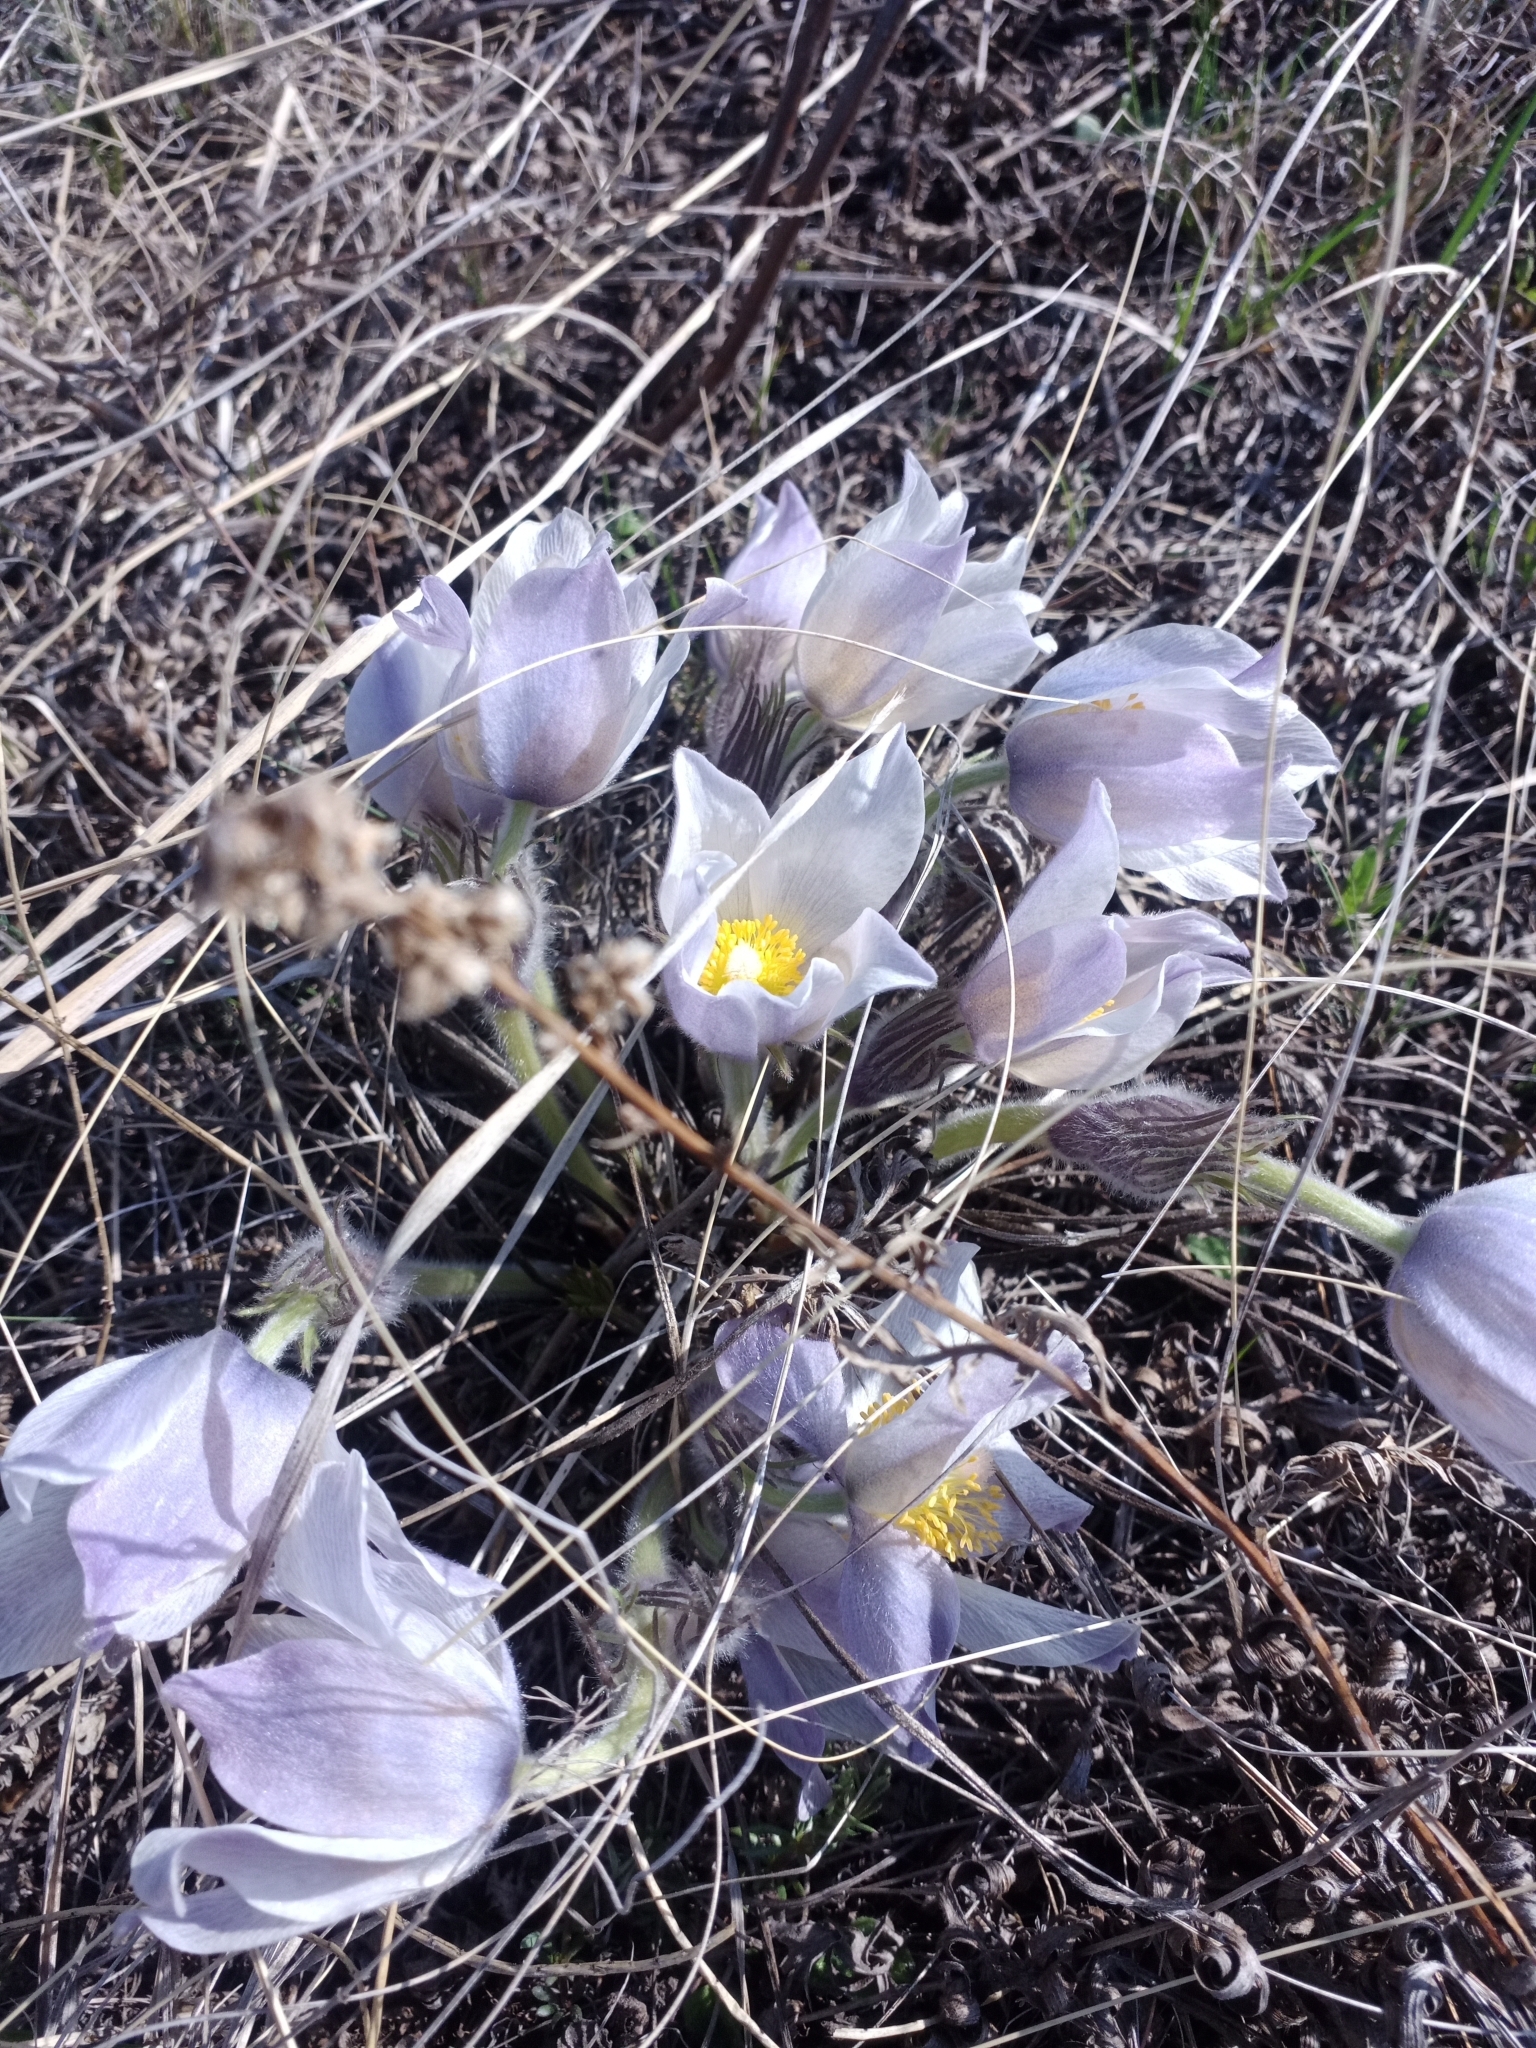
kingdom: Plantae
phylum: Tracheophyta
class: Magnoliopsida
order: Ranunculales
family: Ranunculaceae
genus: Pulsatilla
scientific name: Pulsatilla patens
